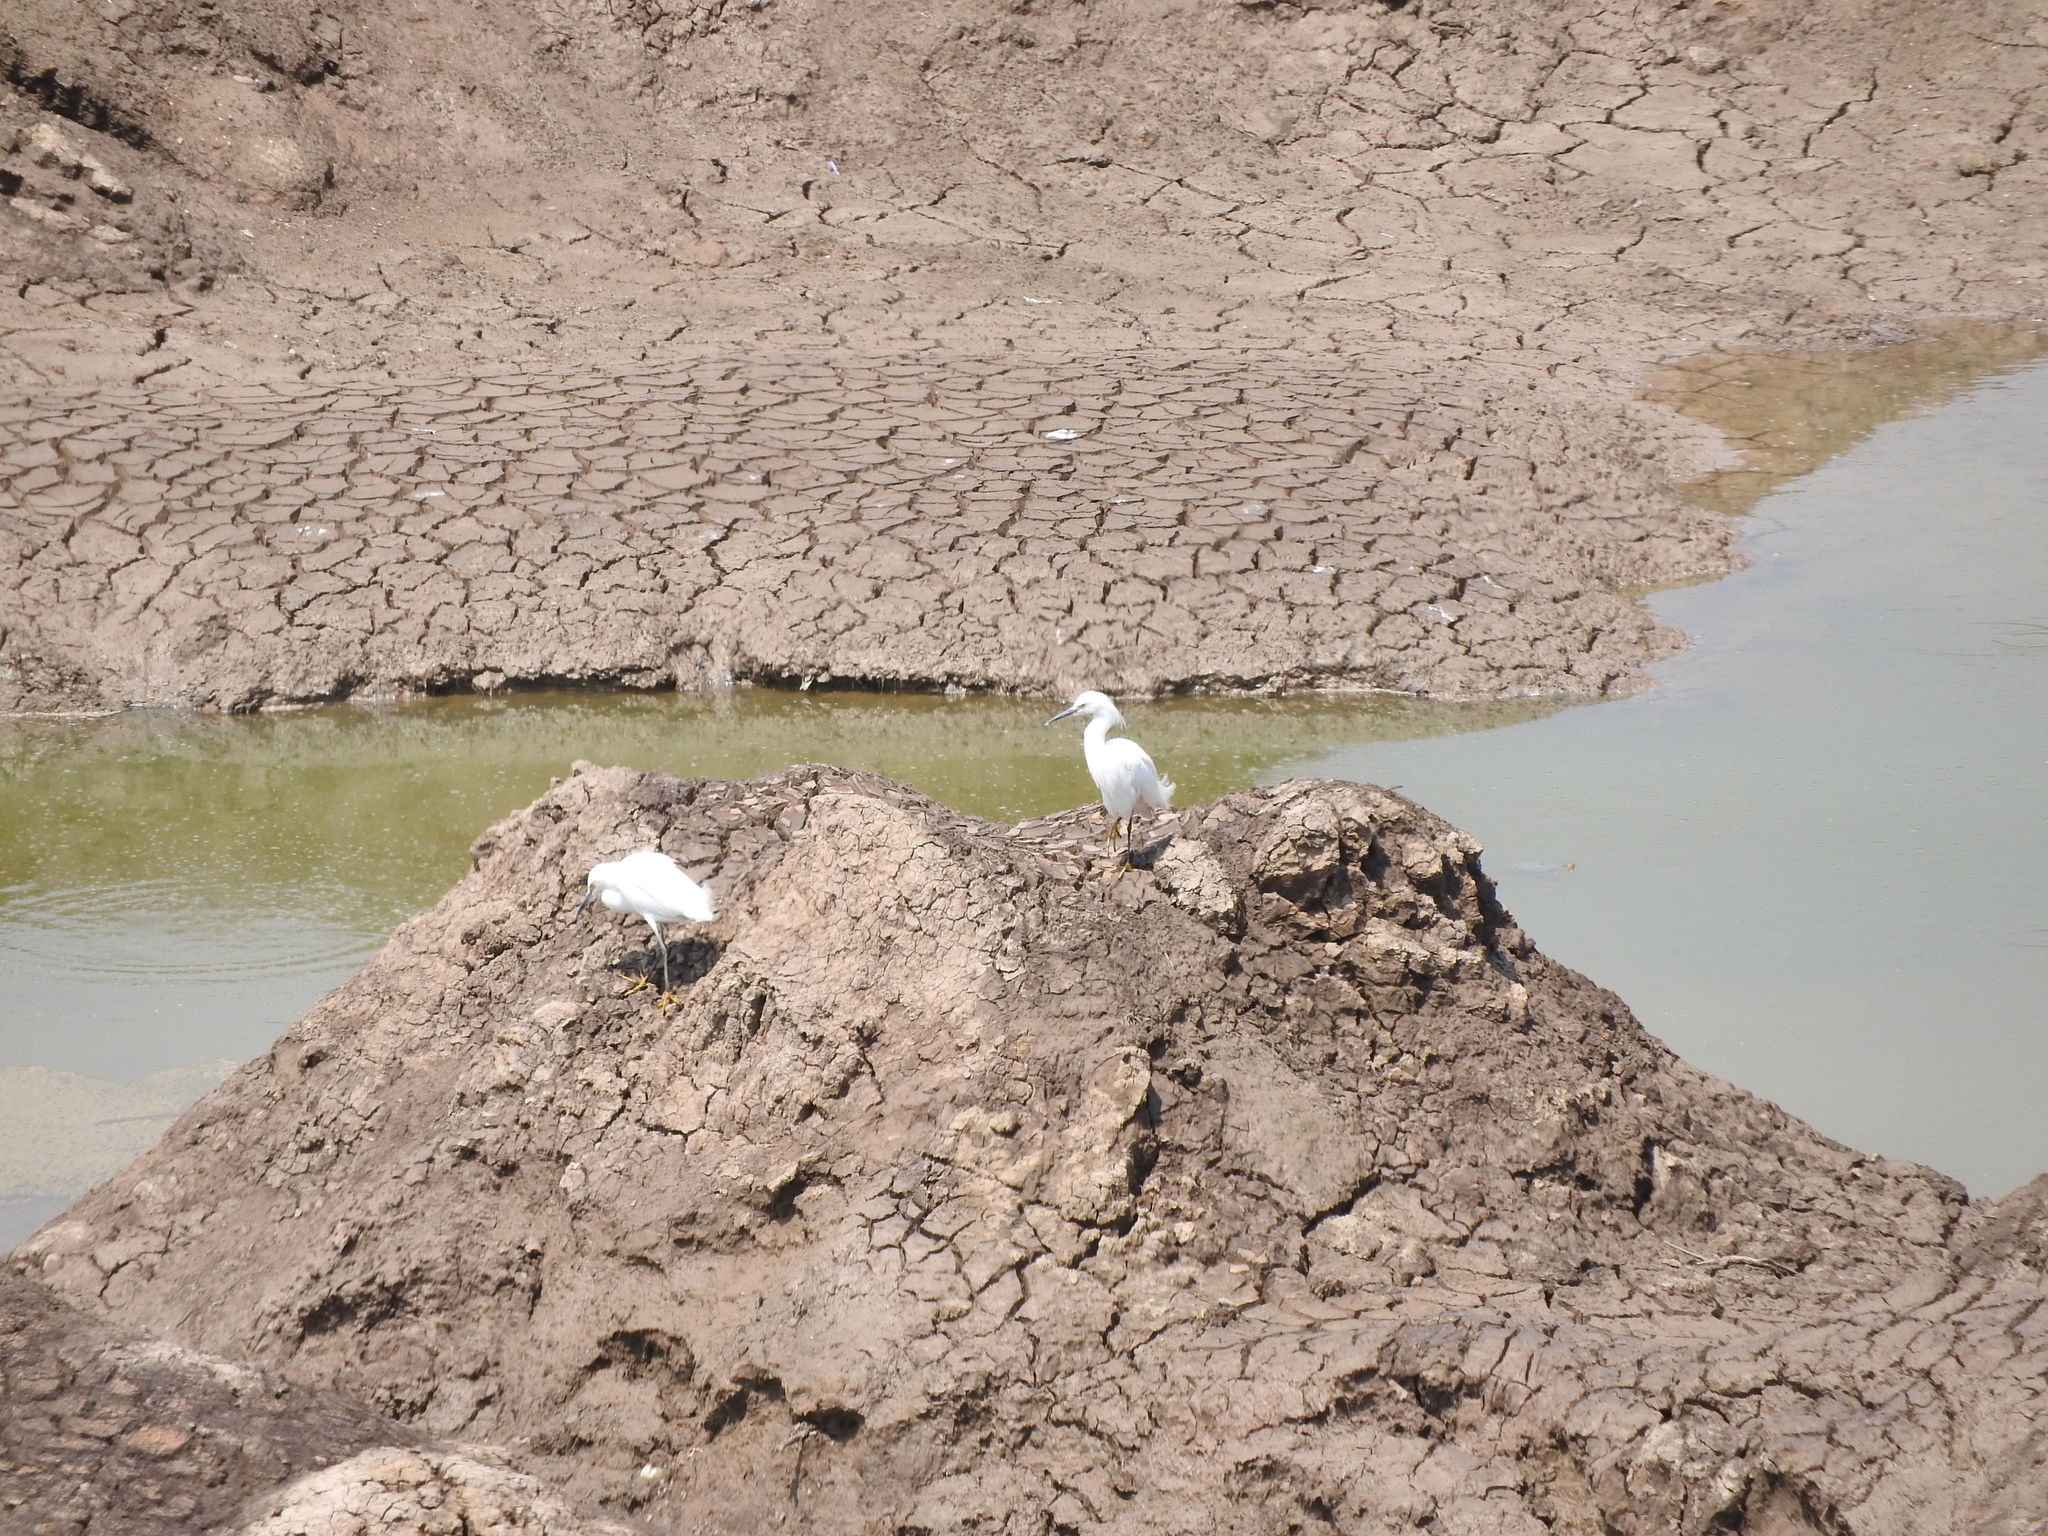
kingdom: Animalia
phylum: Chordata
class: Aves
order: Pelecaniformes
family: Ardeidae
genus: Egretta
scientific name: Egretta thula
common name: Snowy egret
